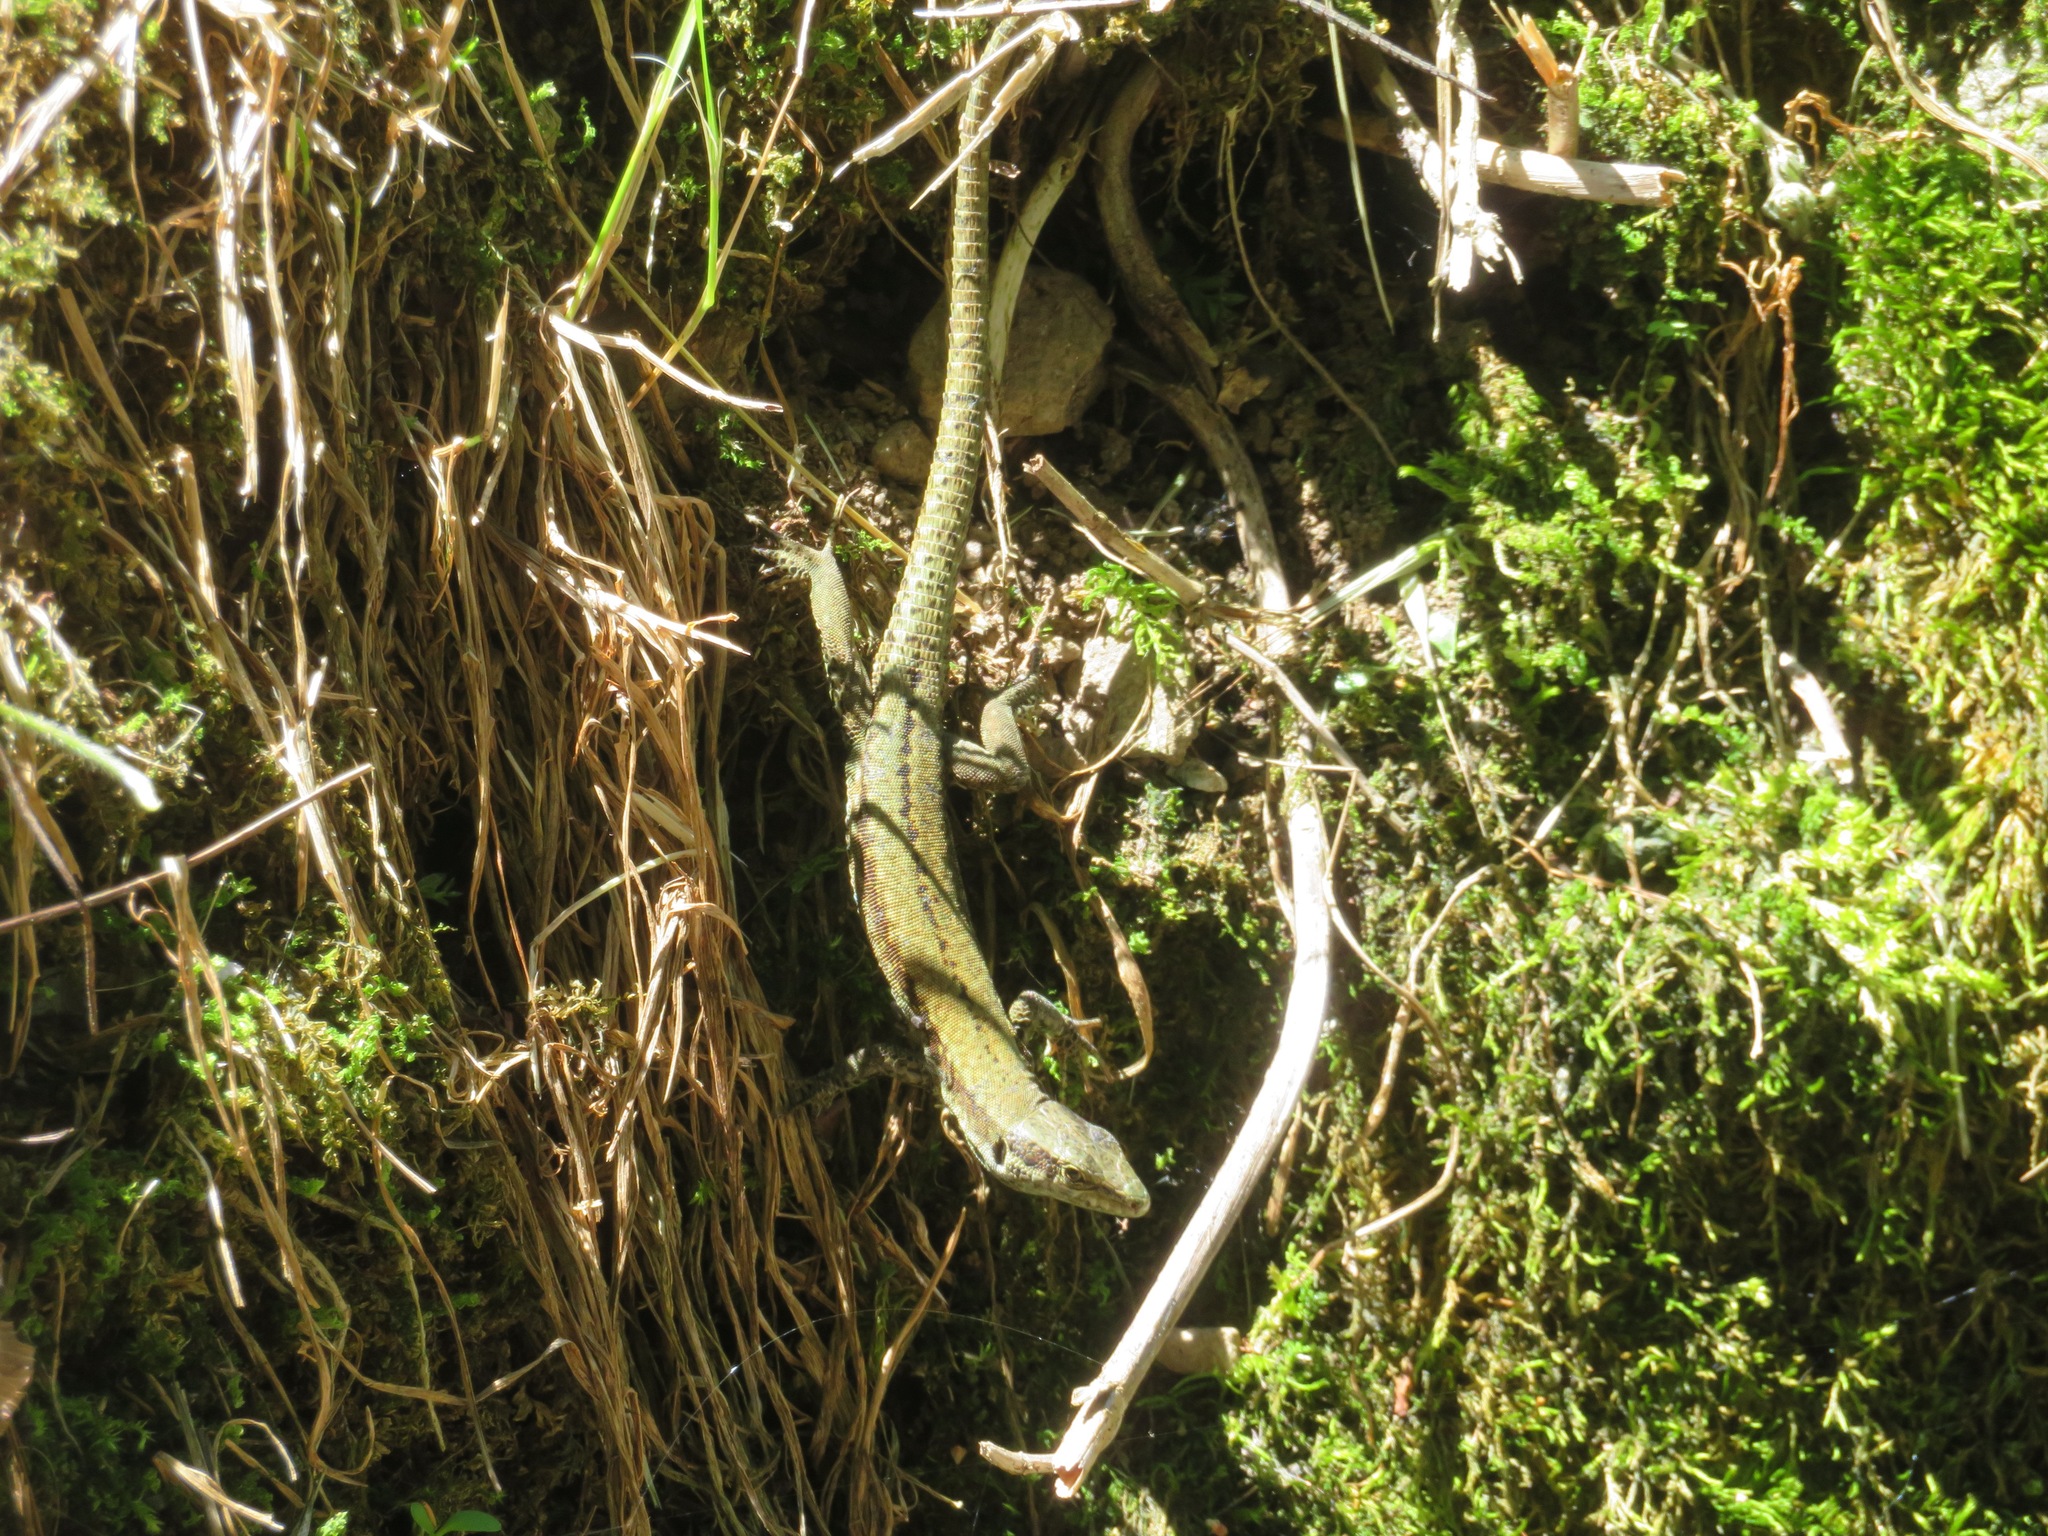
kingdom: Animalia
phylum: Chordata
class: Squamata
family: Lacertidae
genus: Podarcis
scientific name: Podarcis muralis
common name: Common wall lizard
